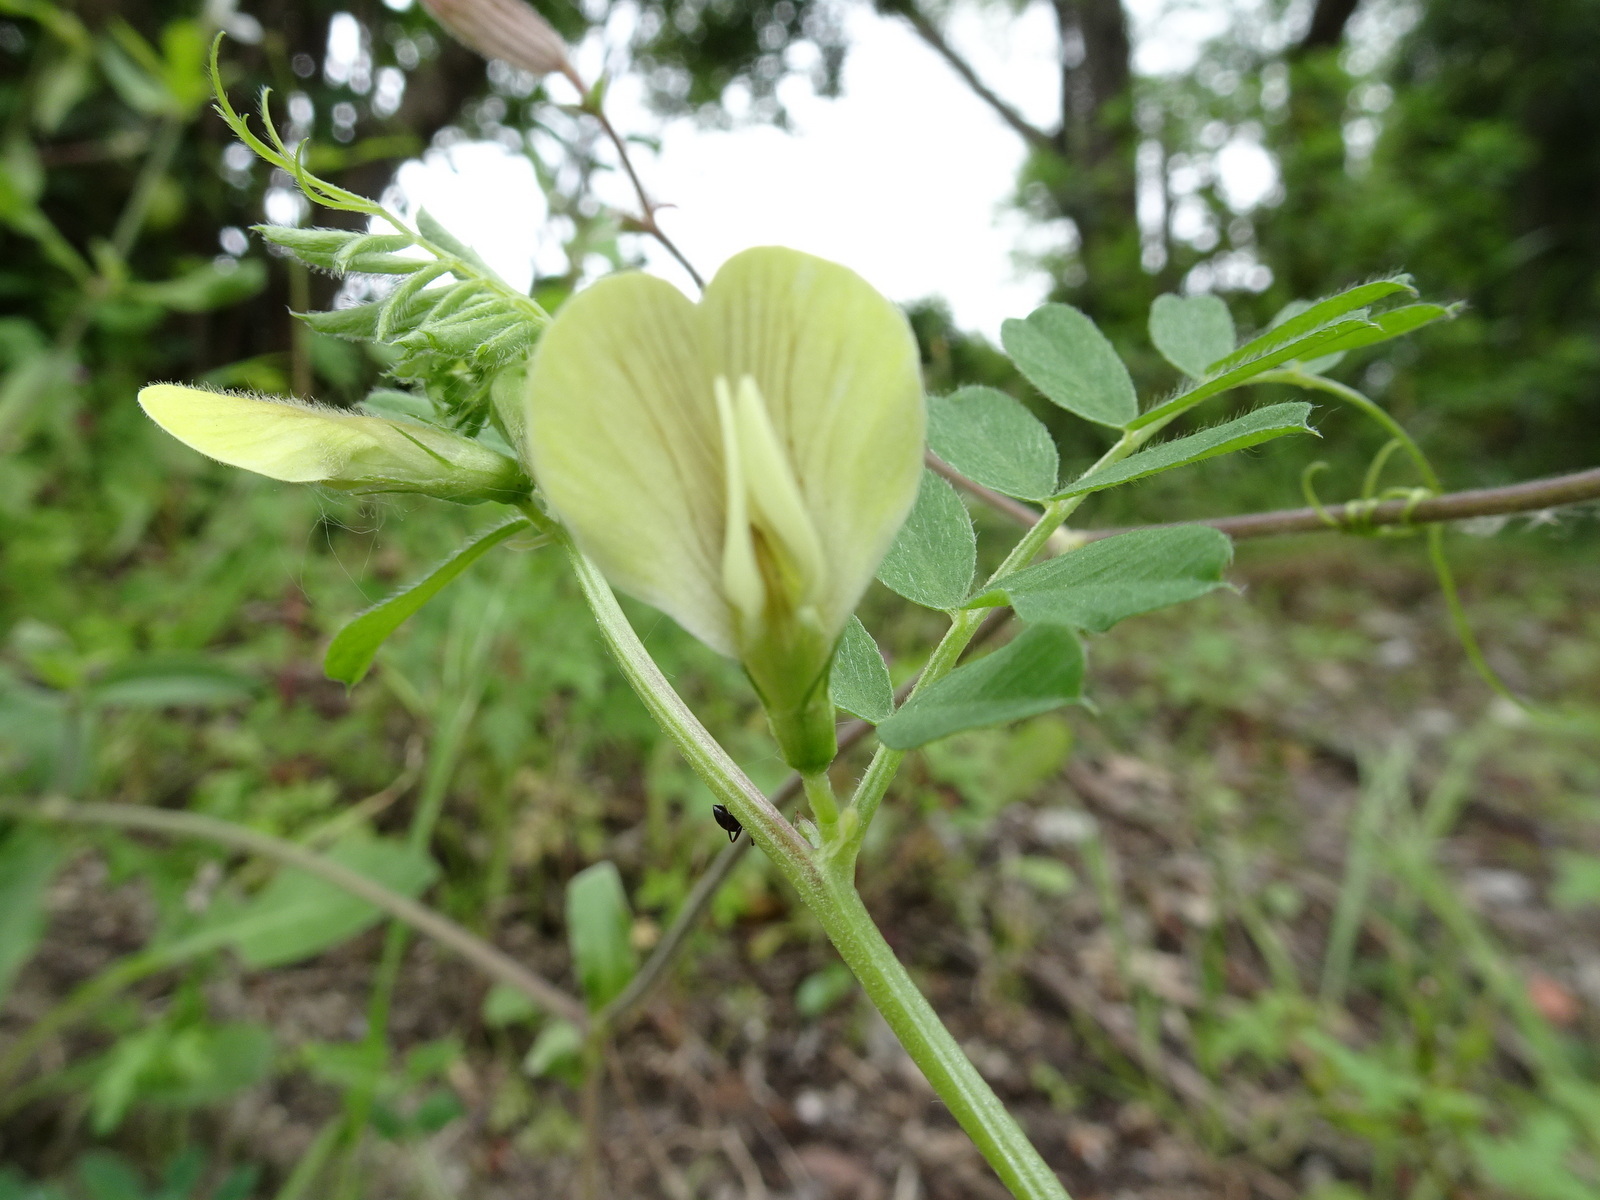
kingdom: Plantae
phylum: Tracheophyta
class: Magnoliopsida
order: Fabales
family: Fabaceae
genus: Vicia
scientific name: Vicia hybrida
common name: Hairy yellow vetch
